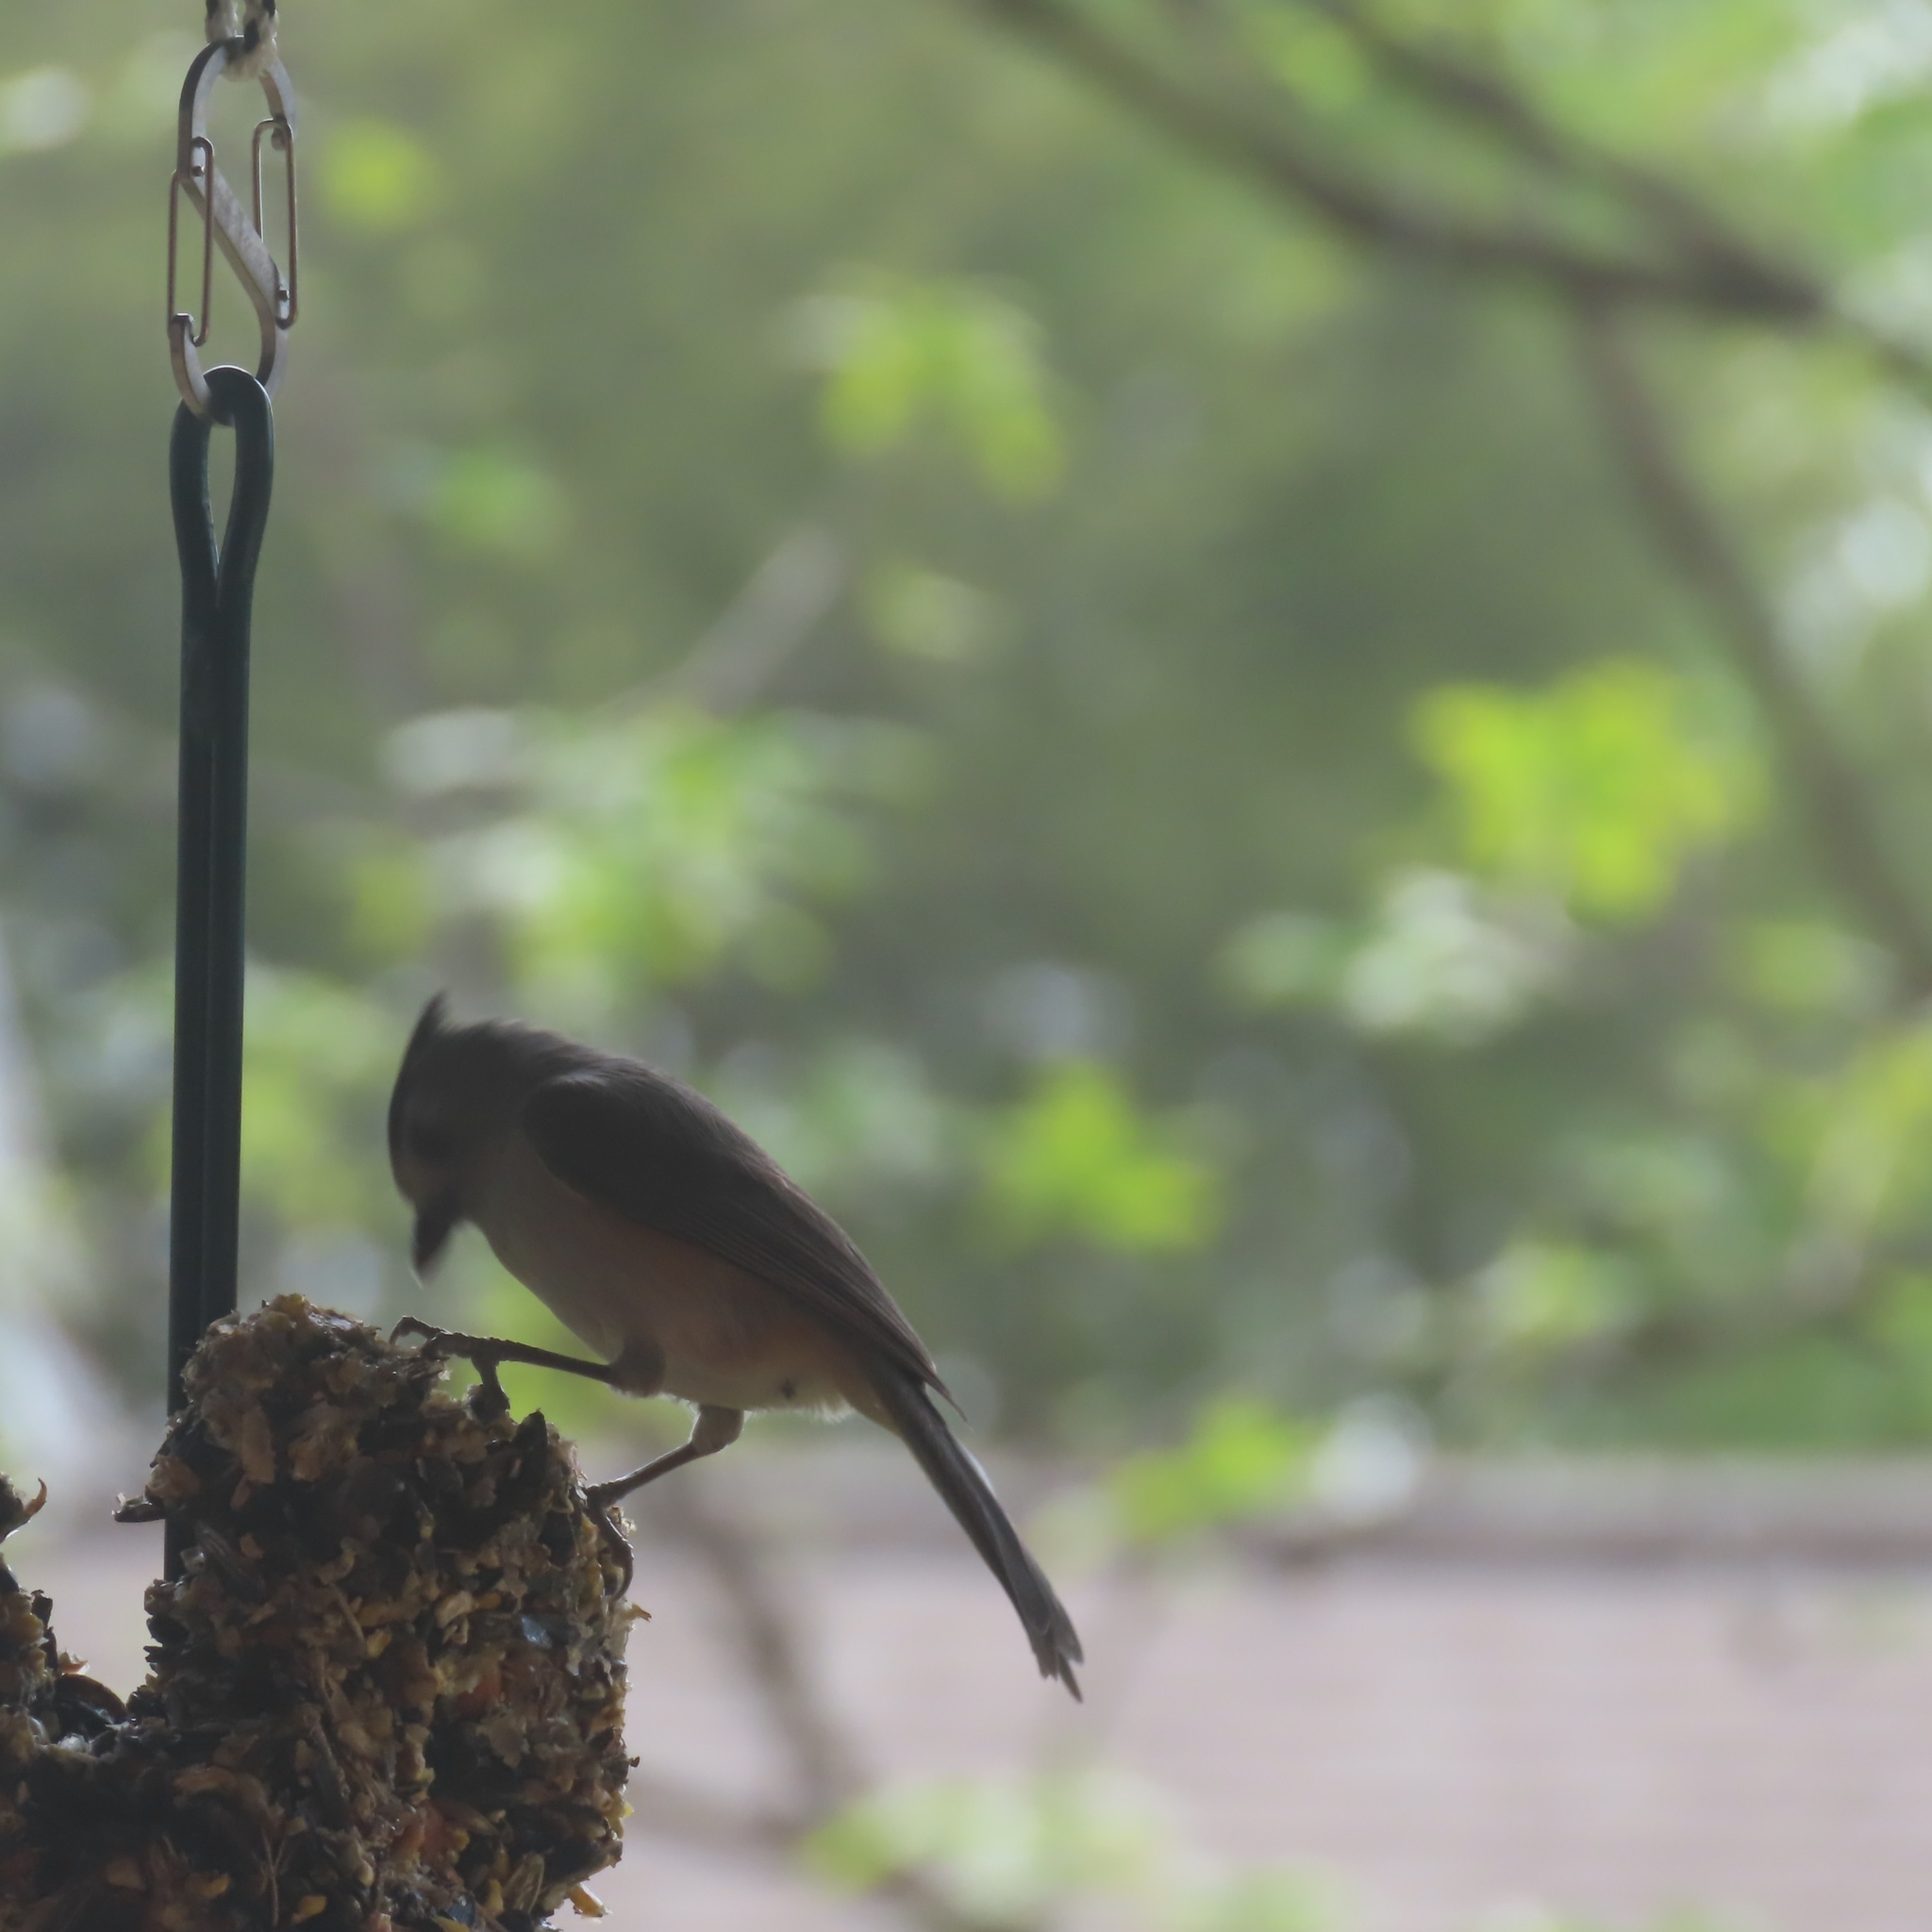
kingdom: Animalia
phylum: Chordata
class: Aves
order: Passeriformes
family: Paridae
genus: Baeolophus
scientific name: Baeolophus atricristatus
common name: Black-crested titmouse
